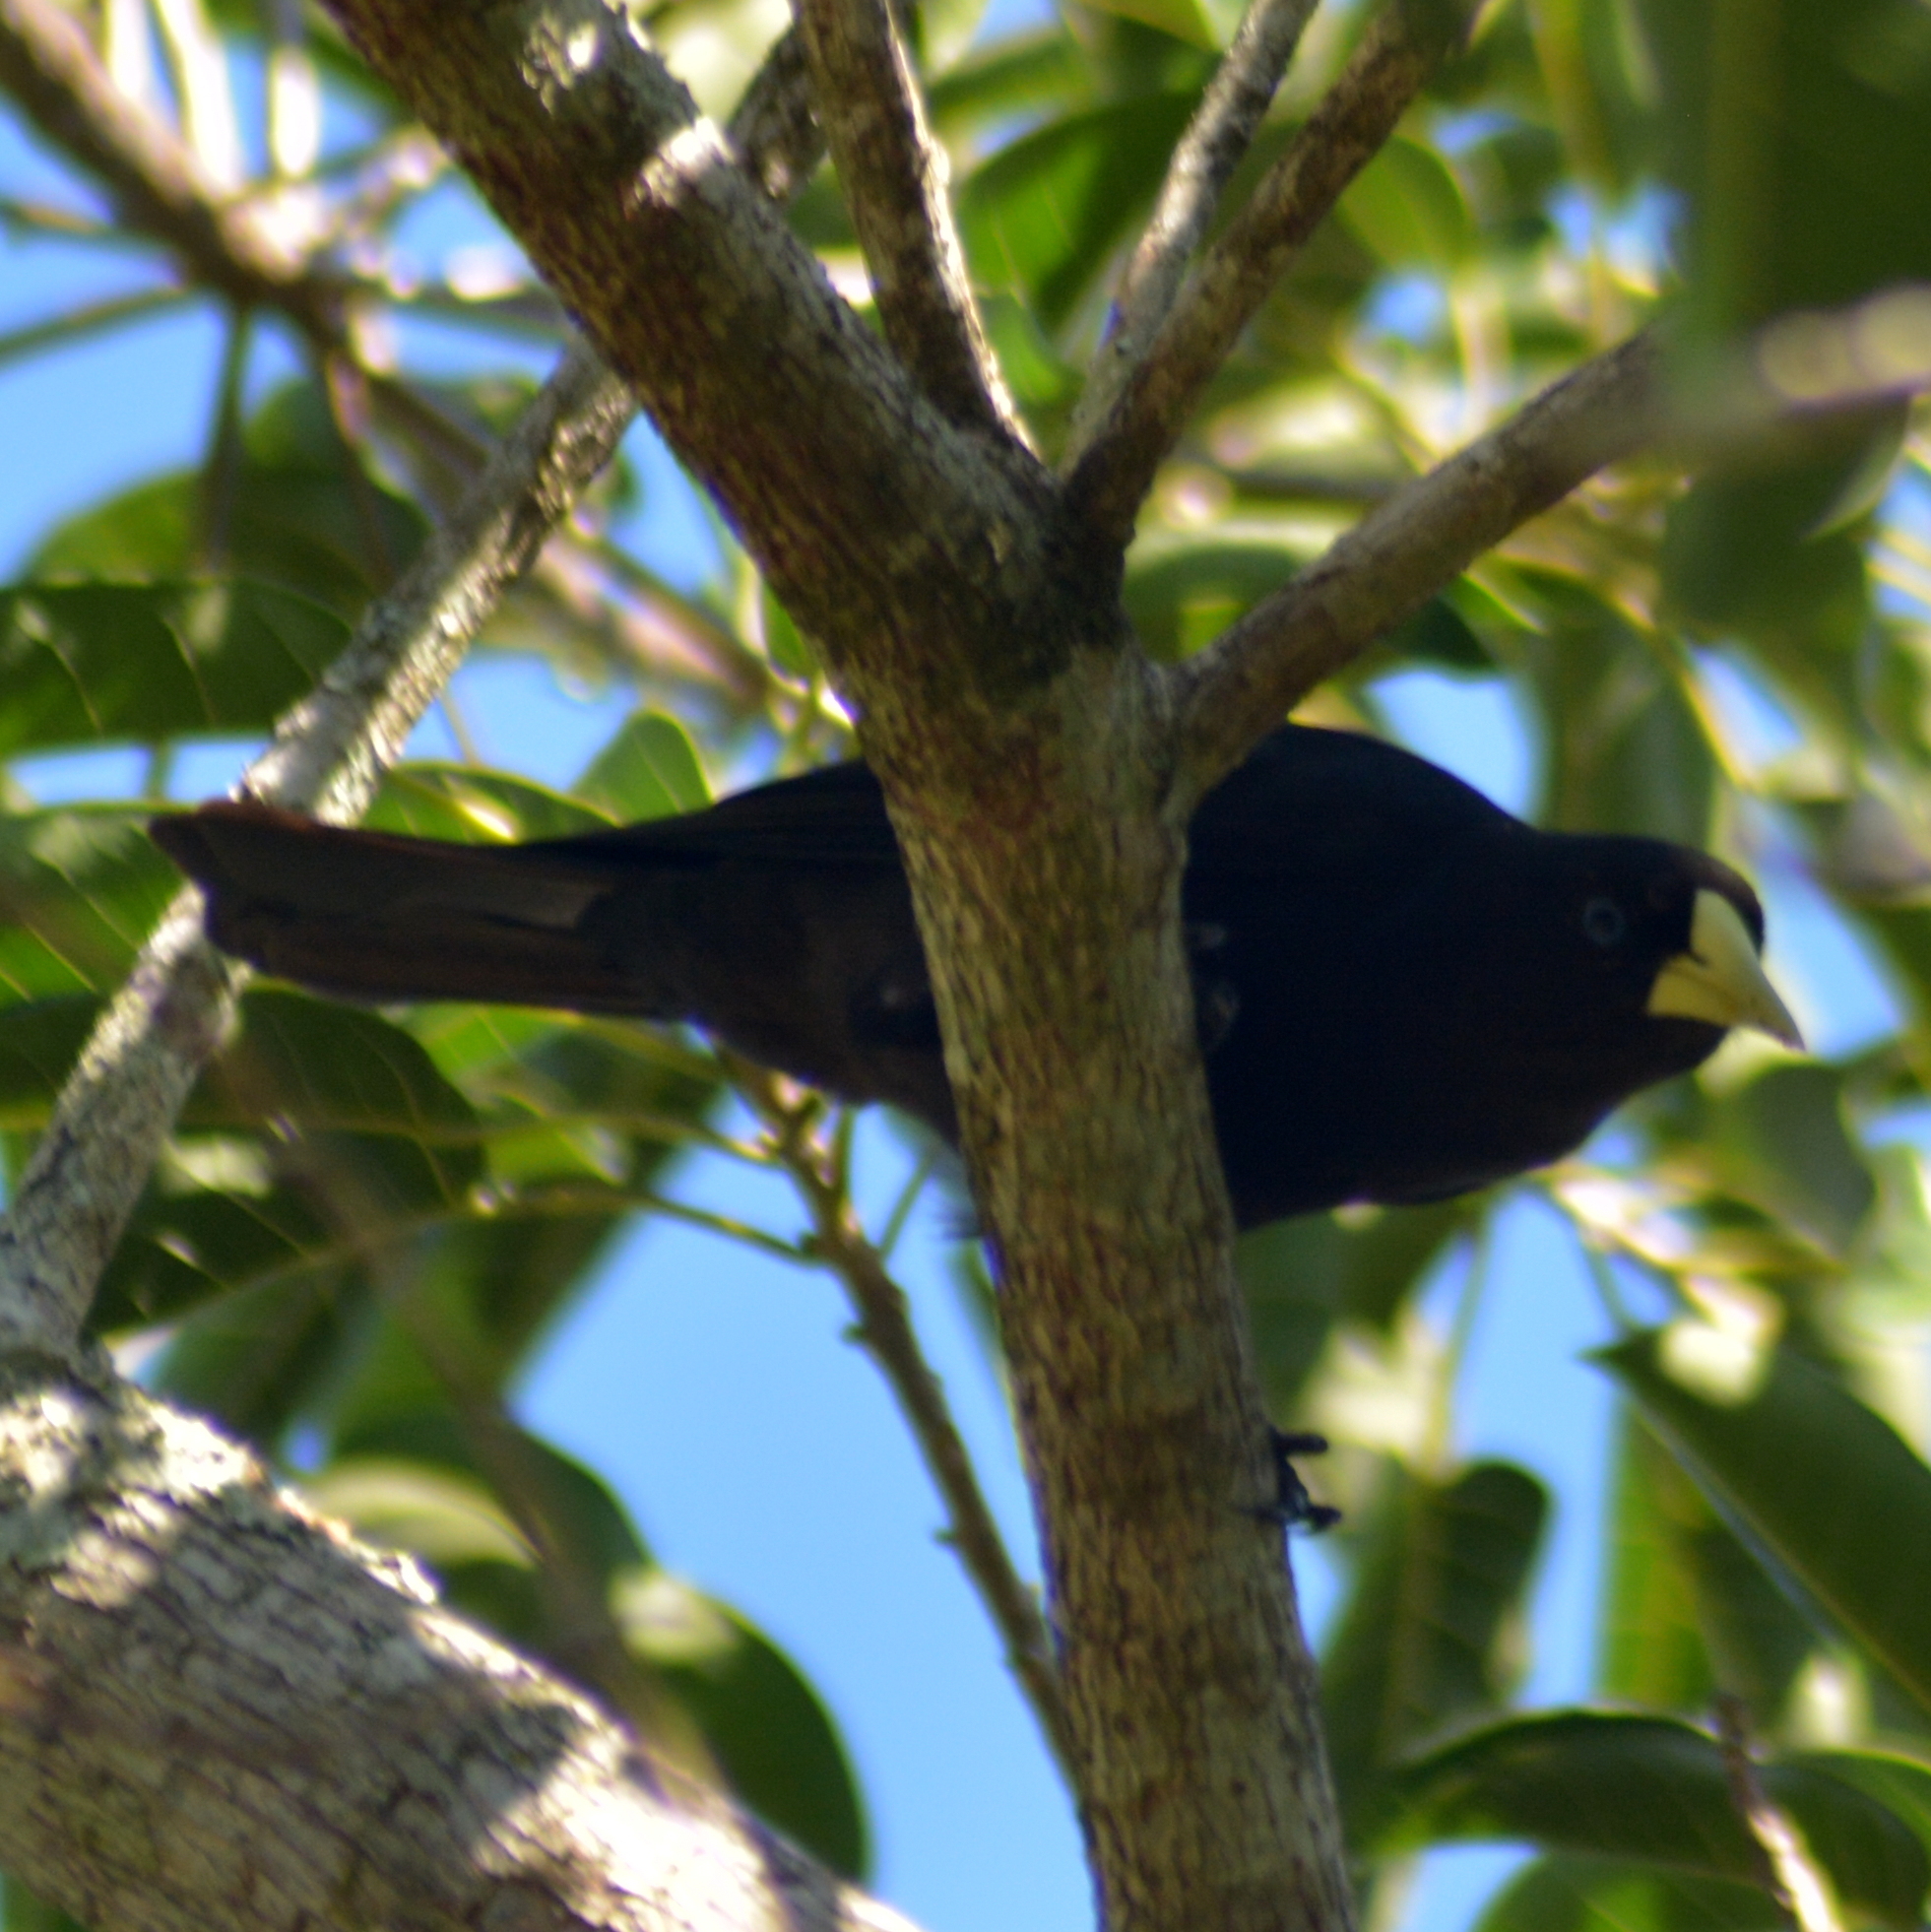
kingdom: Animalia
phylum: Chordata
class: Aves
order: Passeriformes
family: Icteridae
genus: Cacicus
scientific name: Cacicus haemorrhous
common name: Red-rumped cacique
